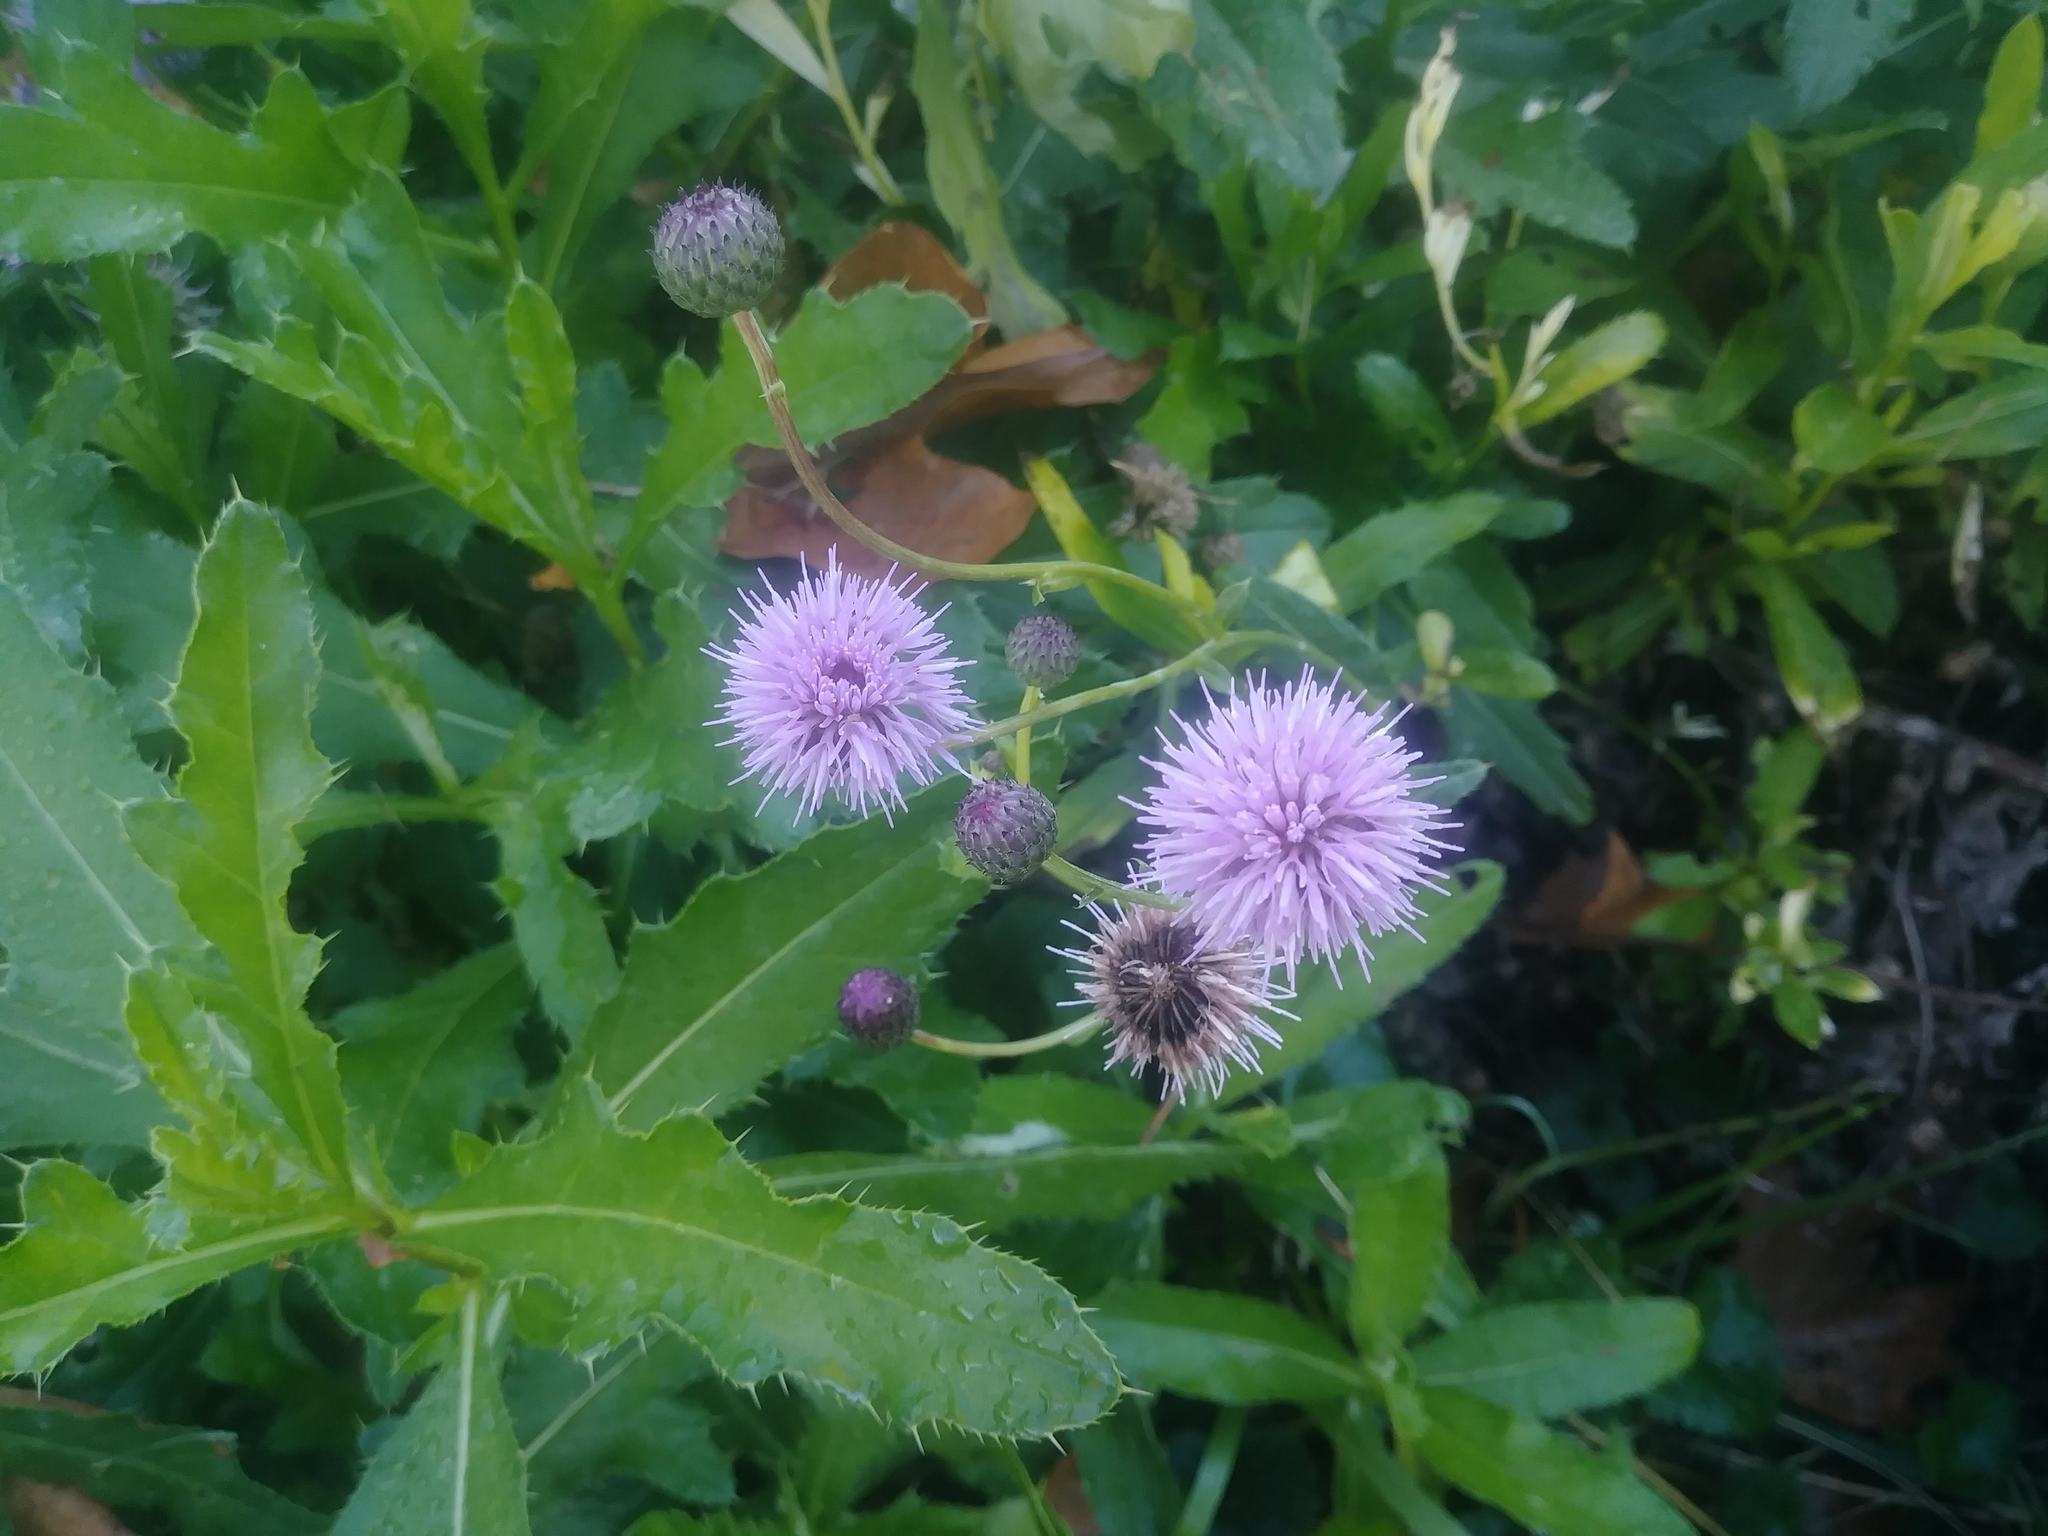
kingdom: Plantae
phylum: Tracheophyta
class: Magnoliopsida
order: Asterales
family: Asteraceae
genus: Cirsium
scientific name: Cirsium arvense
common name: Creeping thistle
